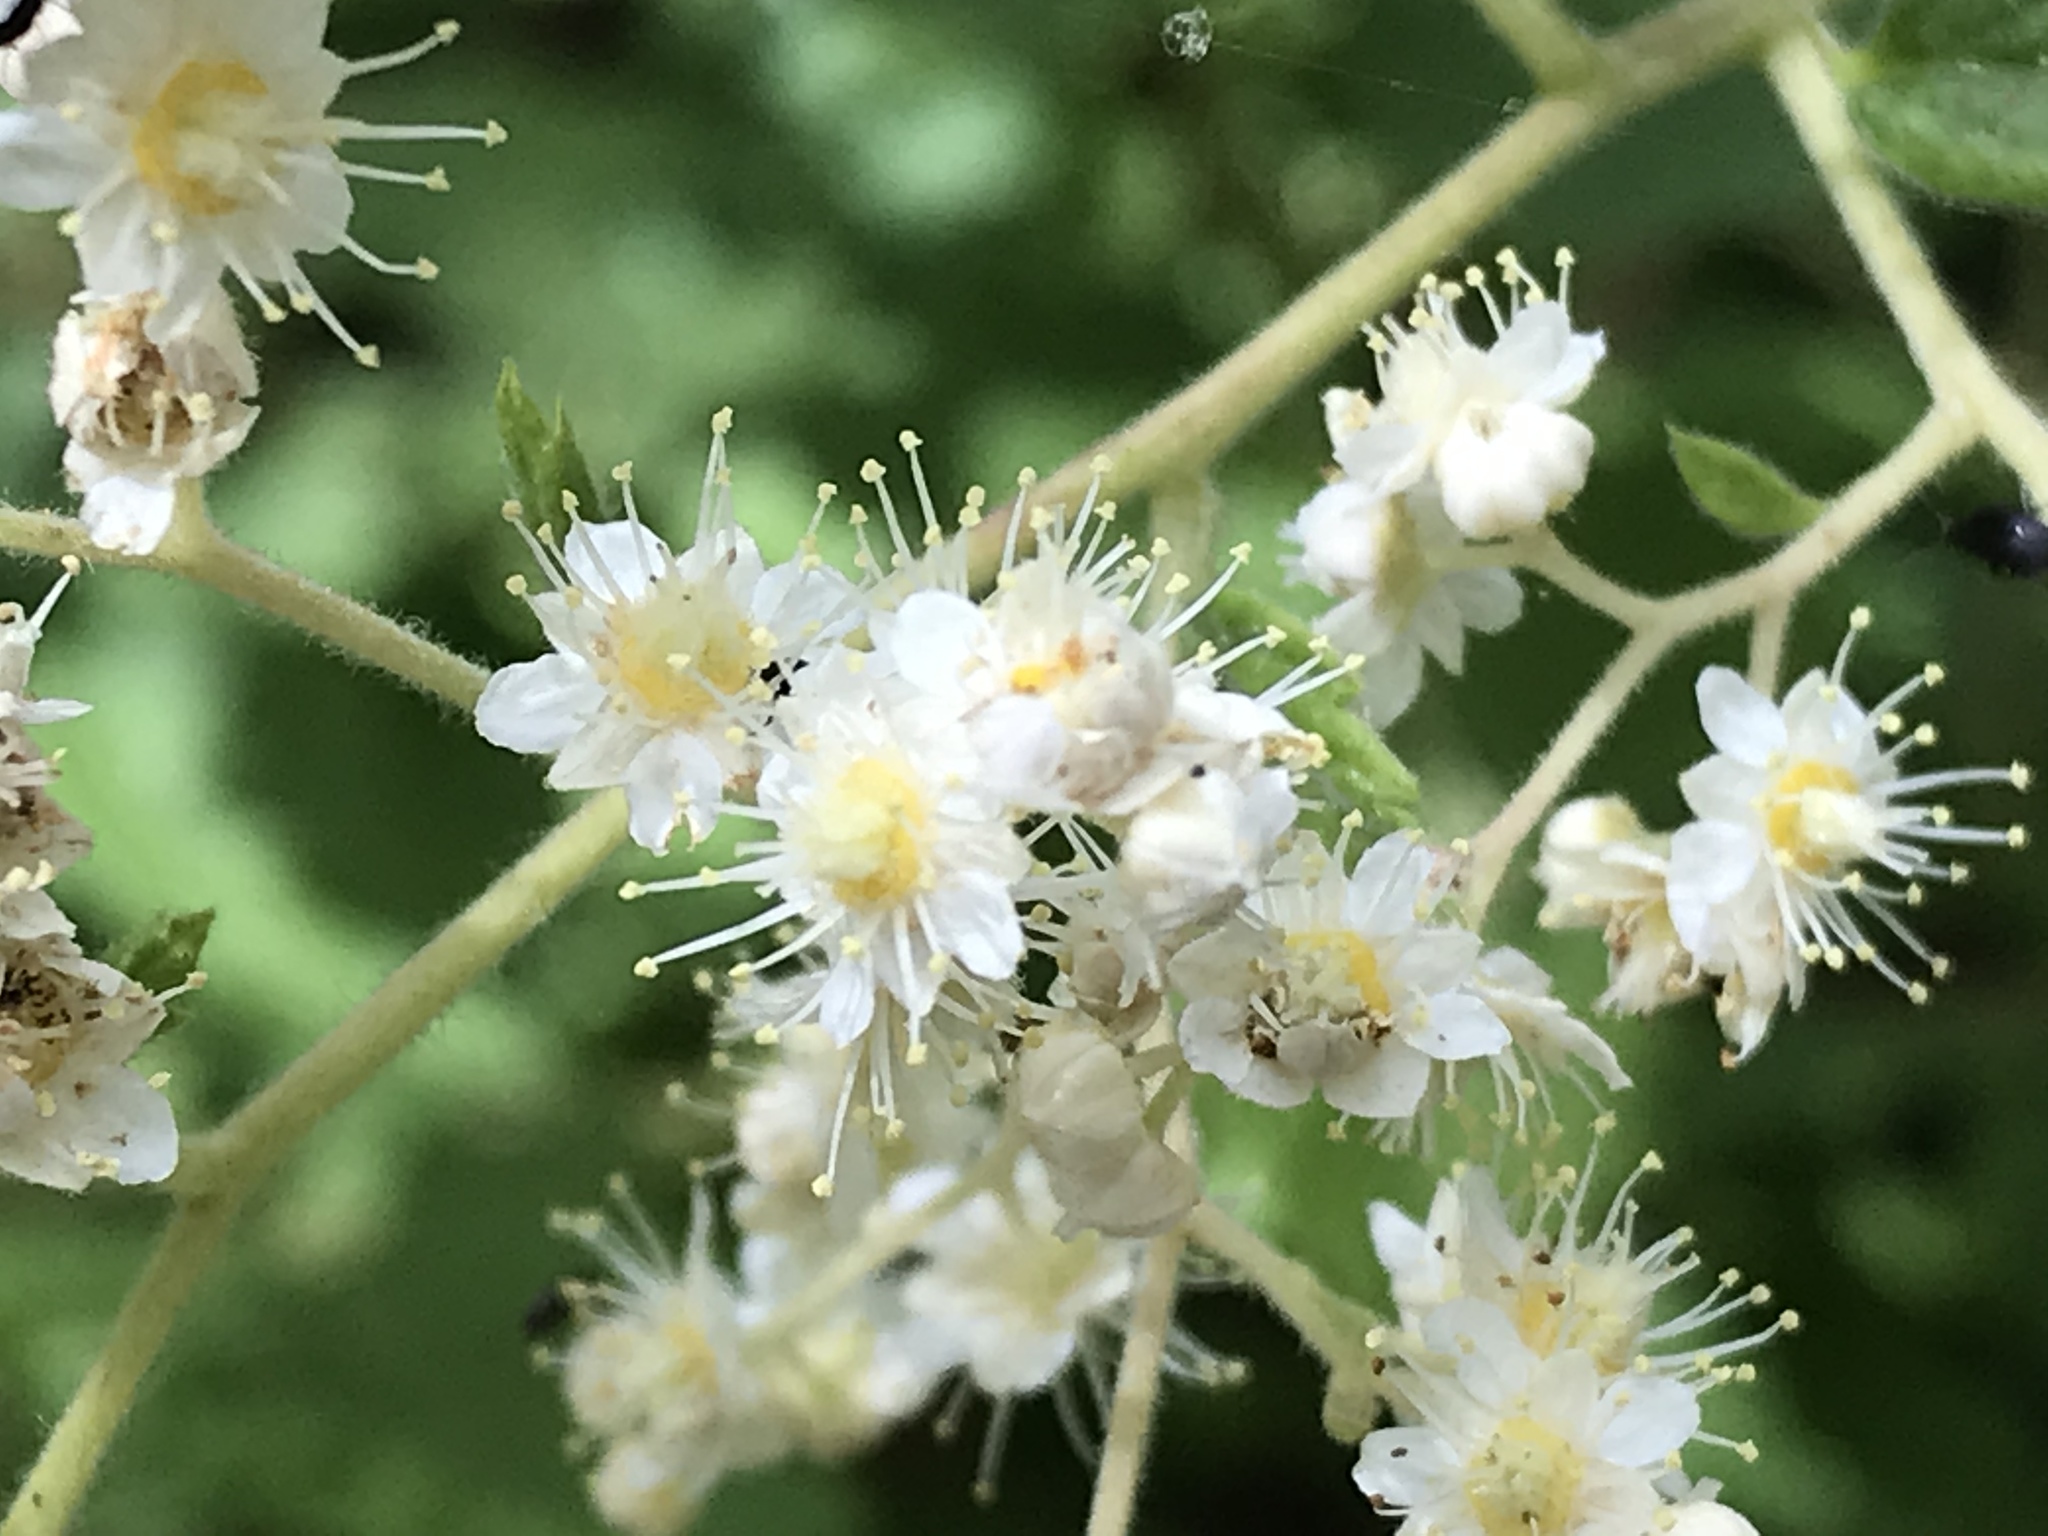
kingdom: Plantae
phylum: Tracheophyta
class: Magnoliopsida
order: Rosales
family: Rosaceae
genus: Holodiscus
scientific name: Holodiscus discolor
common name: Oceanspray
